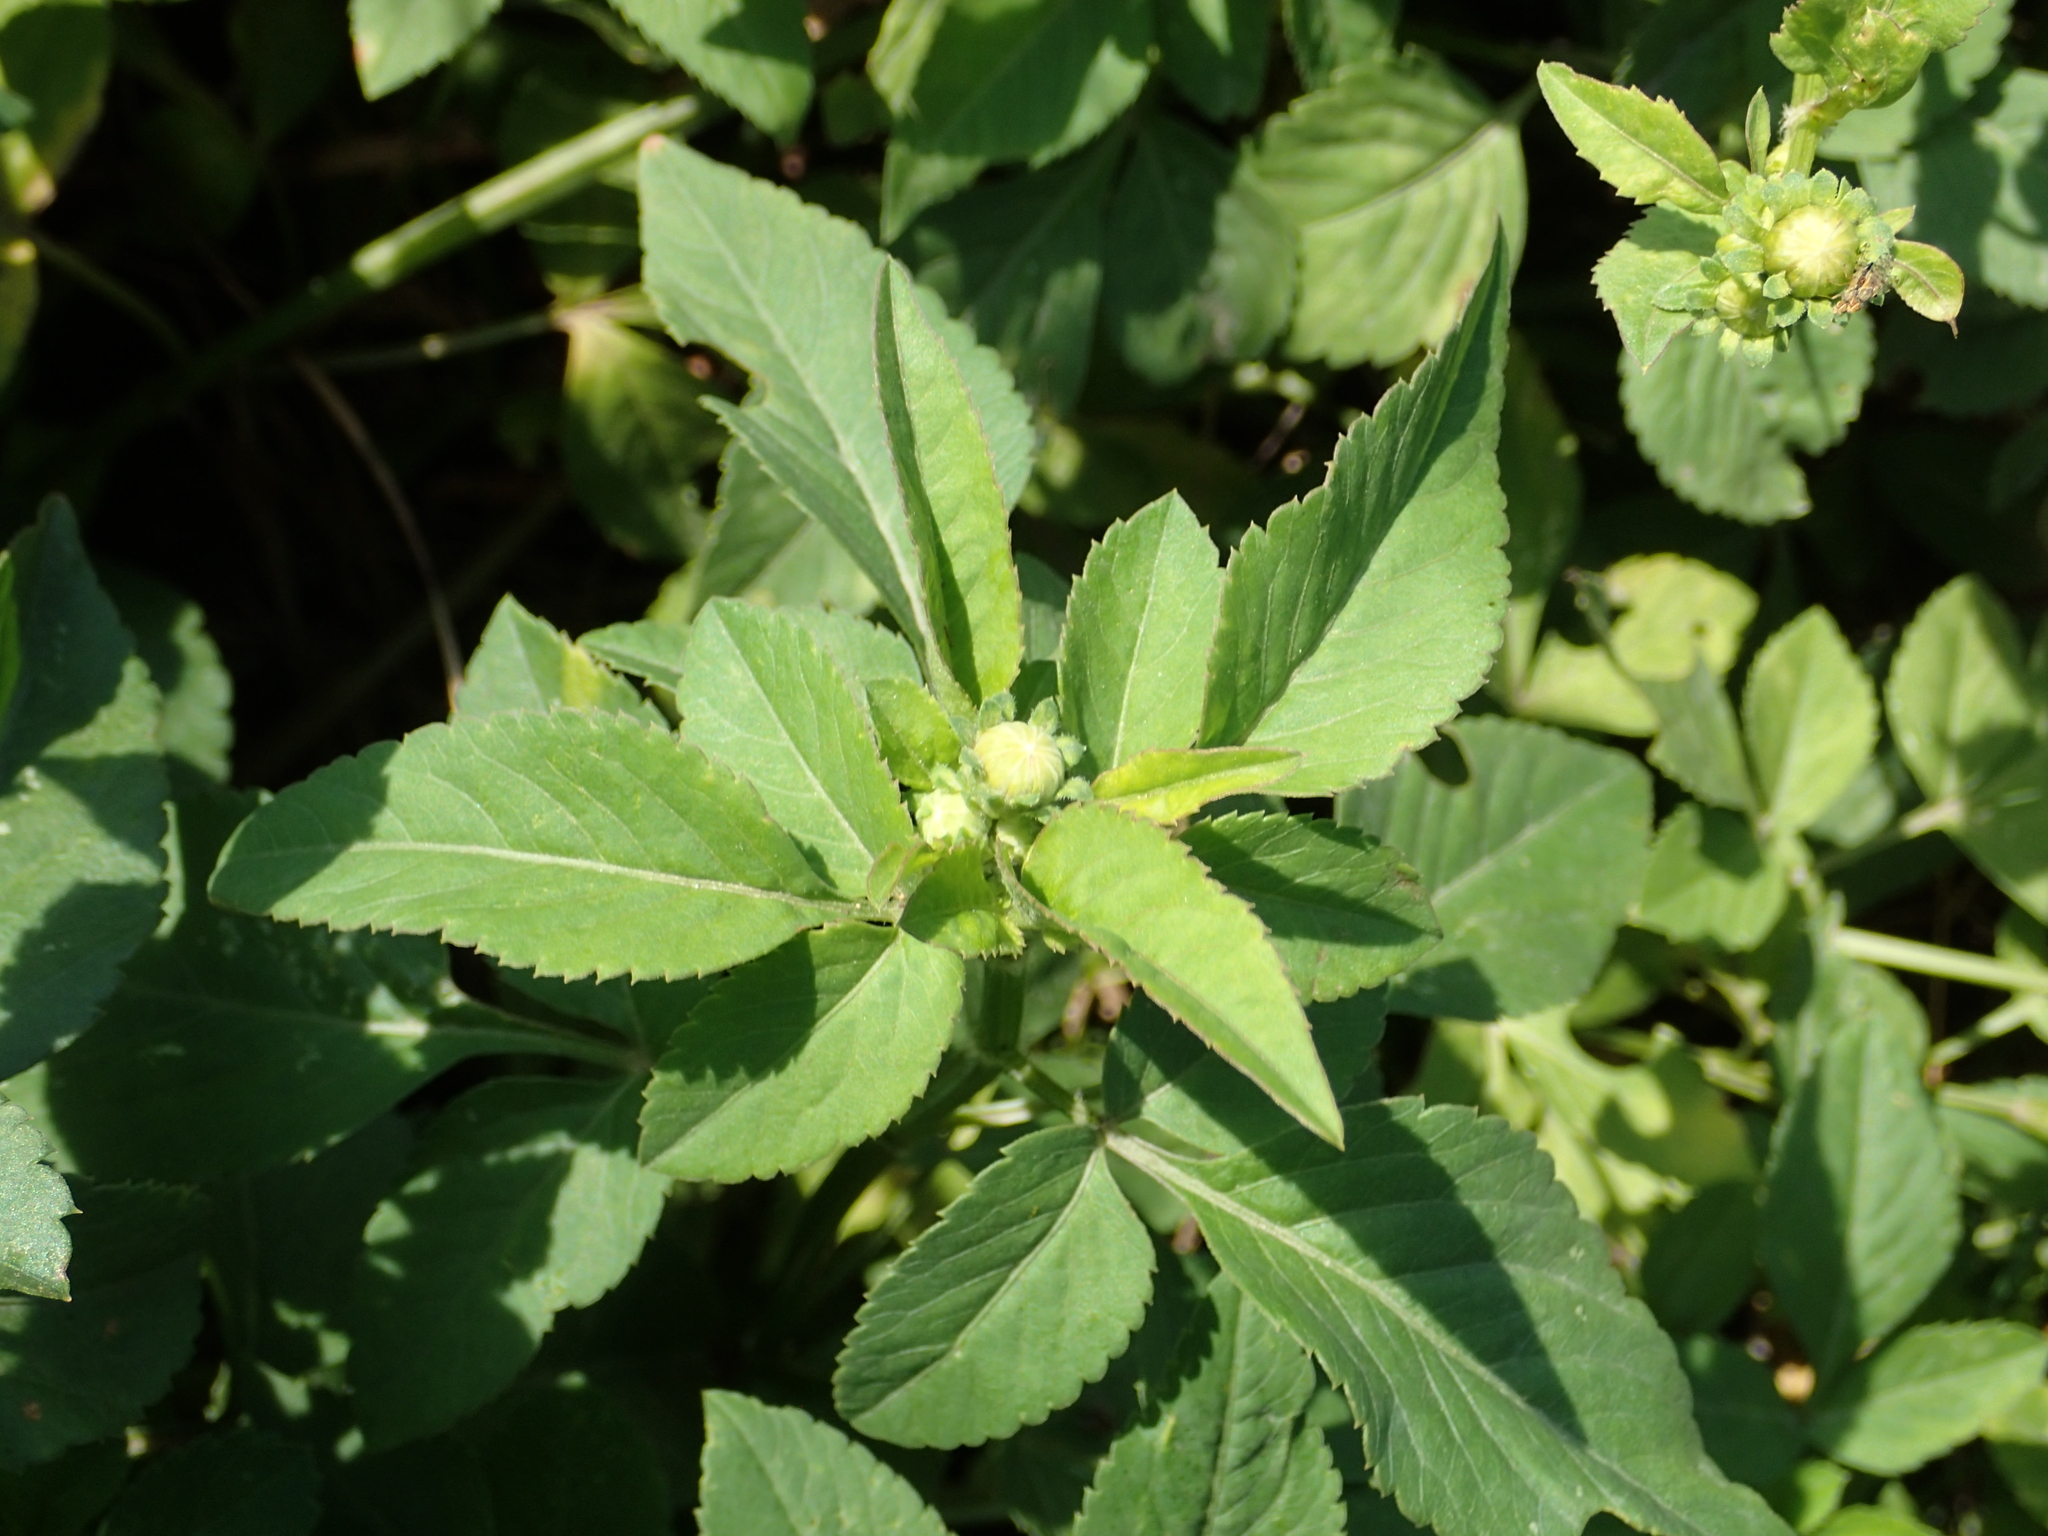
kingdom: Plantae
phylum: Tracheophyta
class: Magnoliopsida
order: Asterales
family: Asteraceae
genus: Bidens
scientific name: Bidens alba
